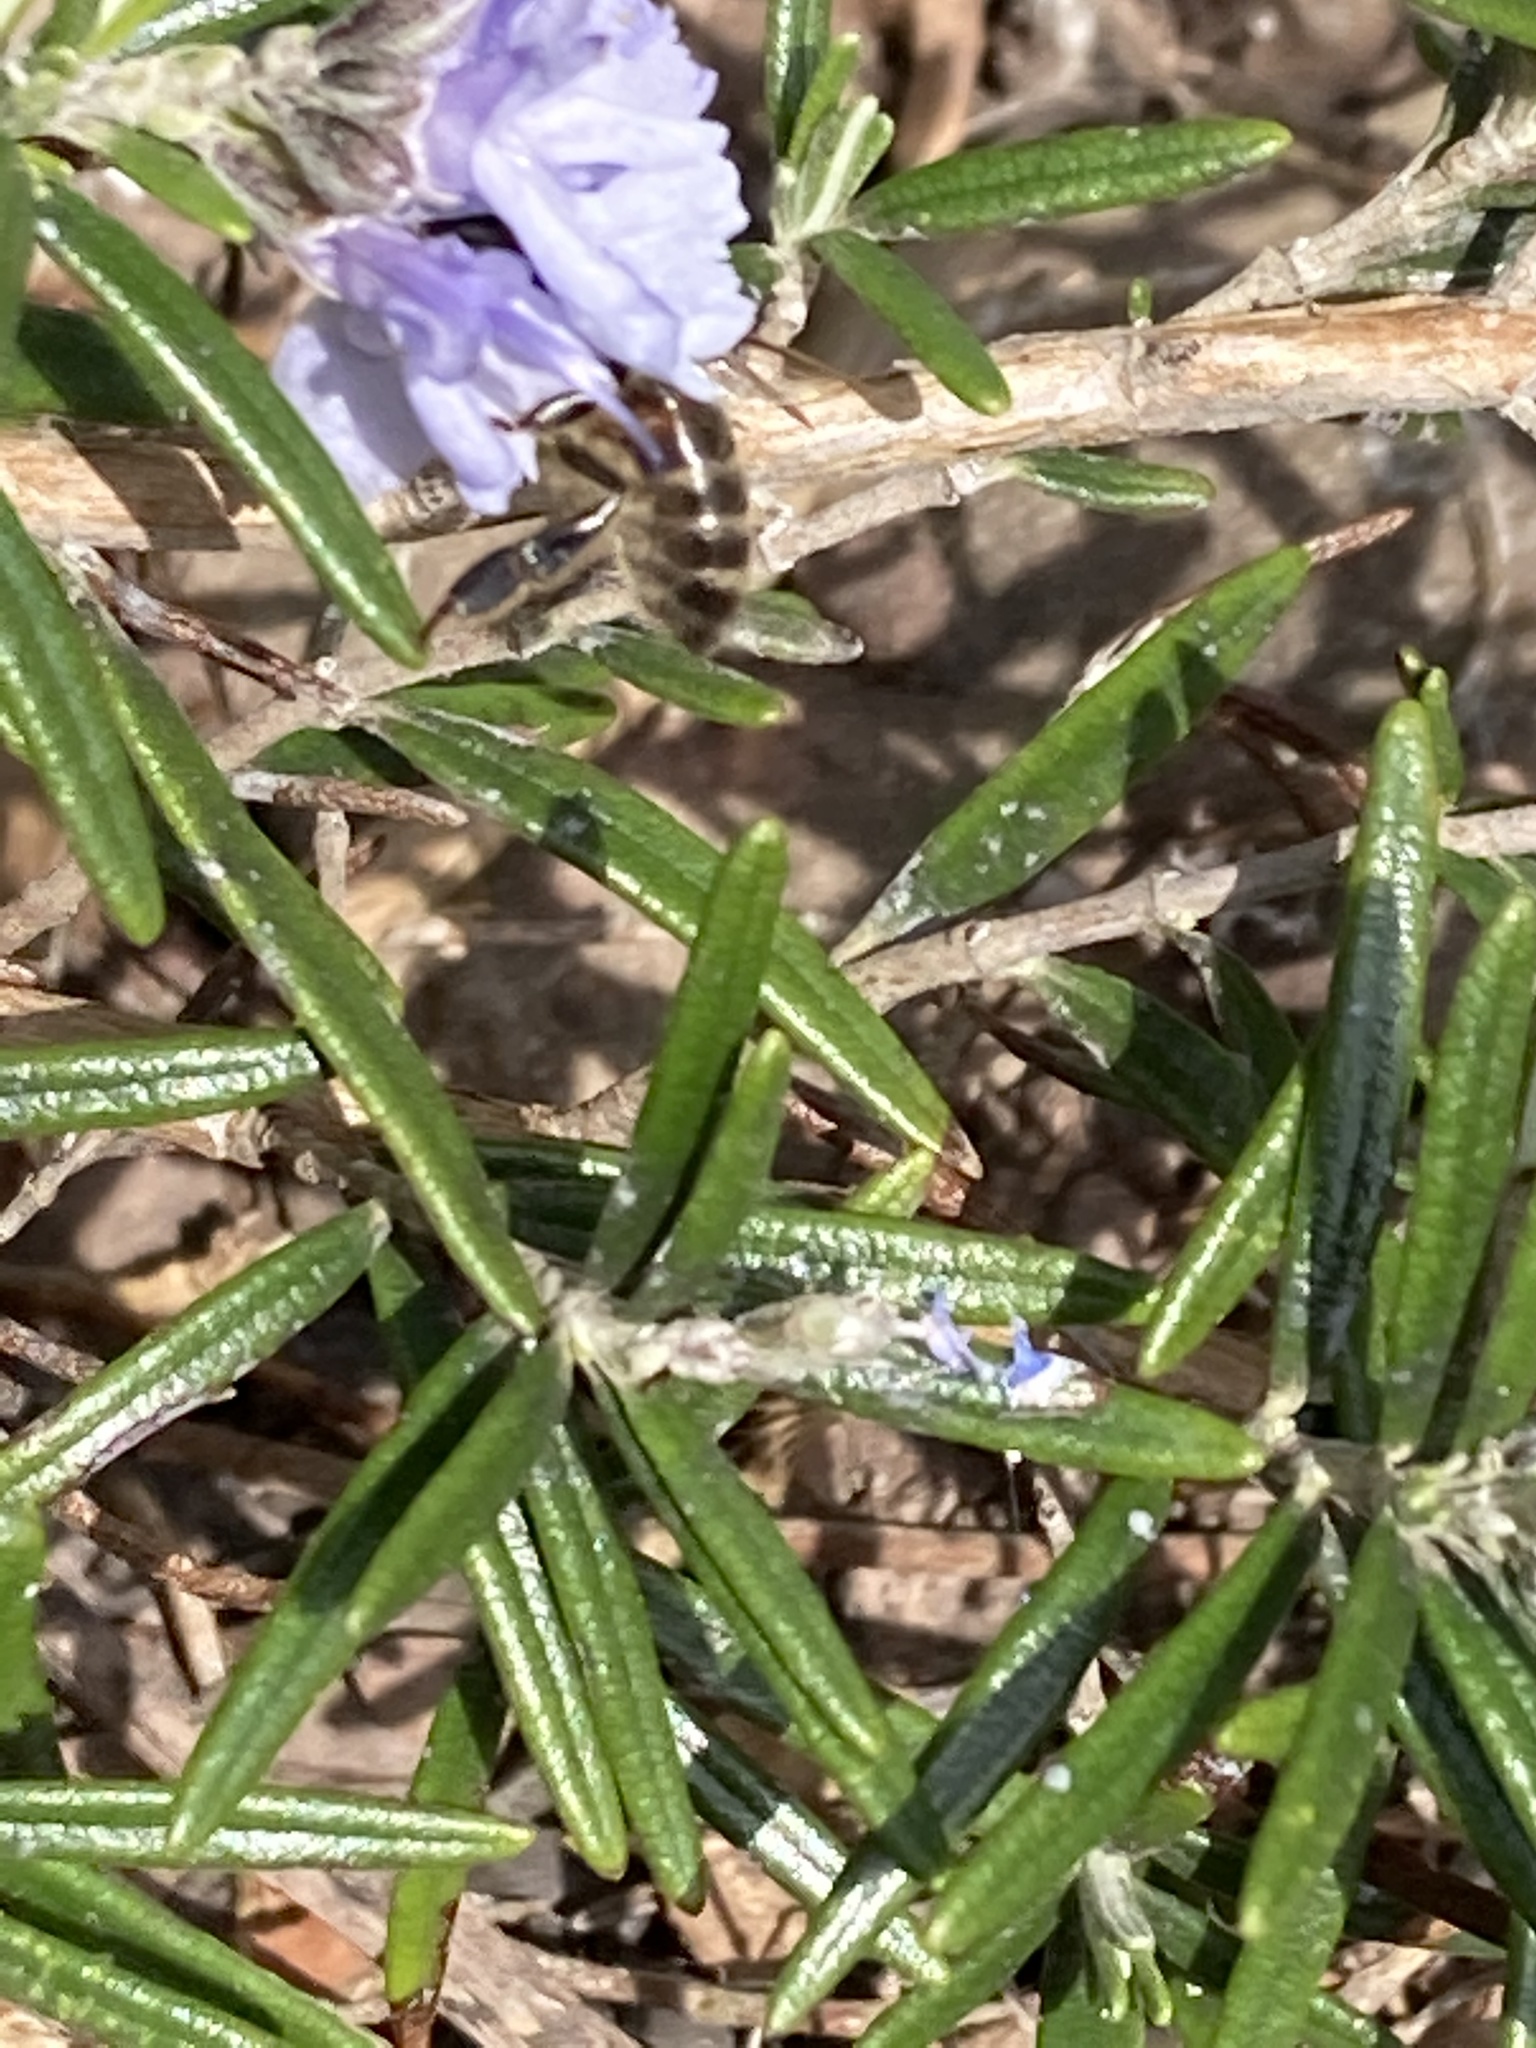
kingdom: Animalia
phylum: Arthropoda
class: Insecta
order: Hymenoptera
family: Apidae
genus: Apis
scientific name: Apis mellifera
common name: Honey bee
